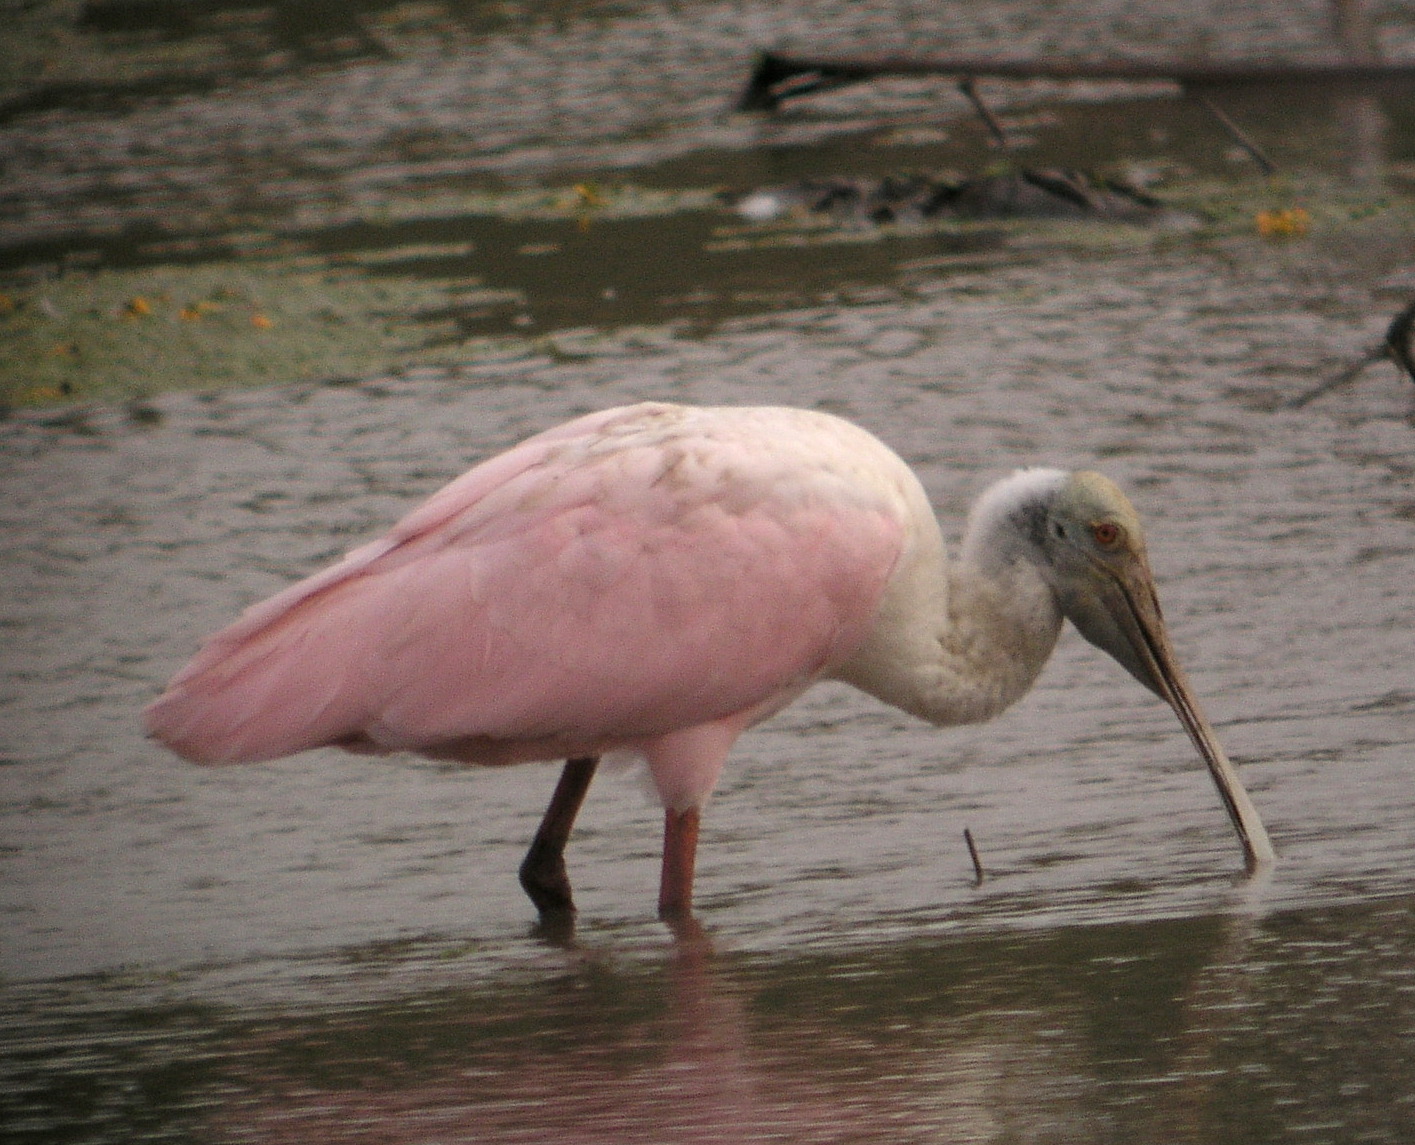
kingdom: Animalia
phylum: Chordata
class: Aves
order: Pelecaniformes
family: Threskiornithidae
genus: Platalea
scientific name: Platalea ajaja
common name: Roseate spoonbill
